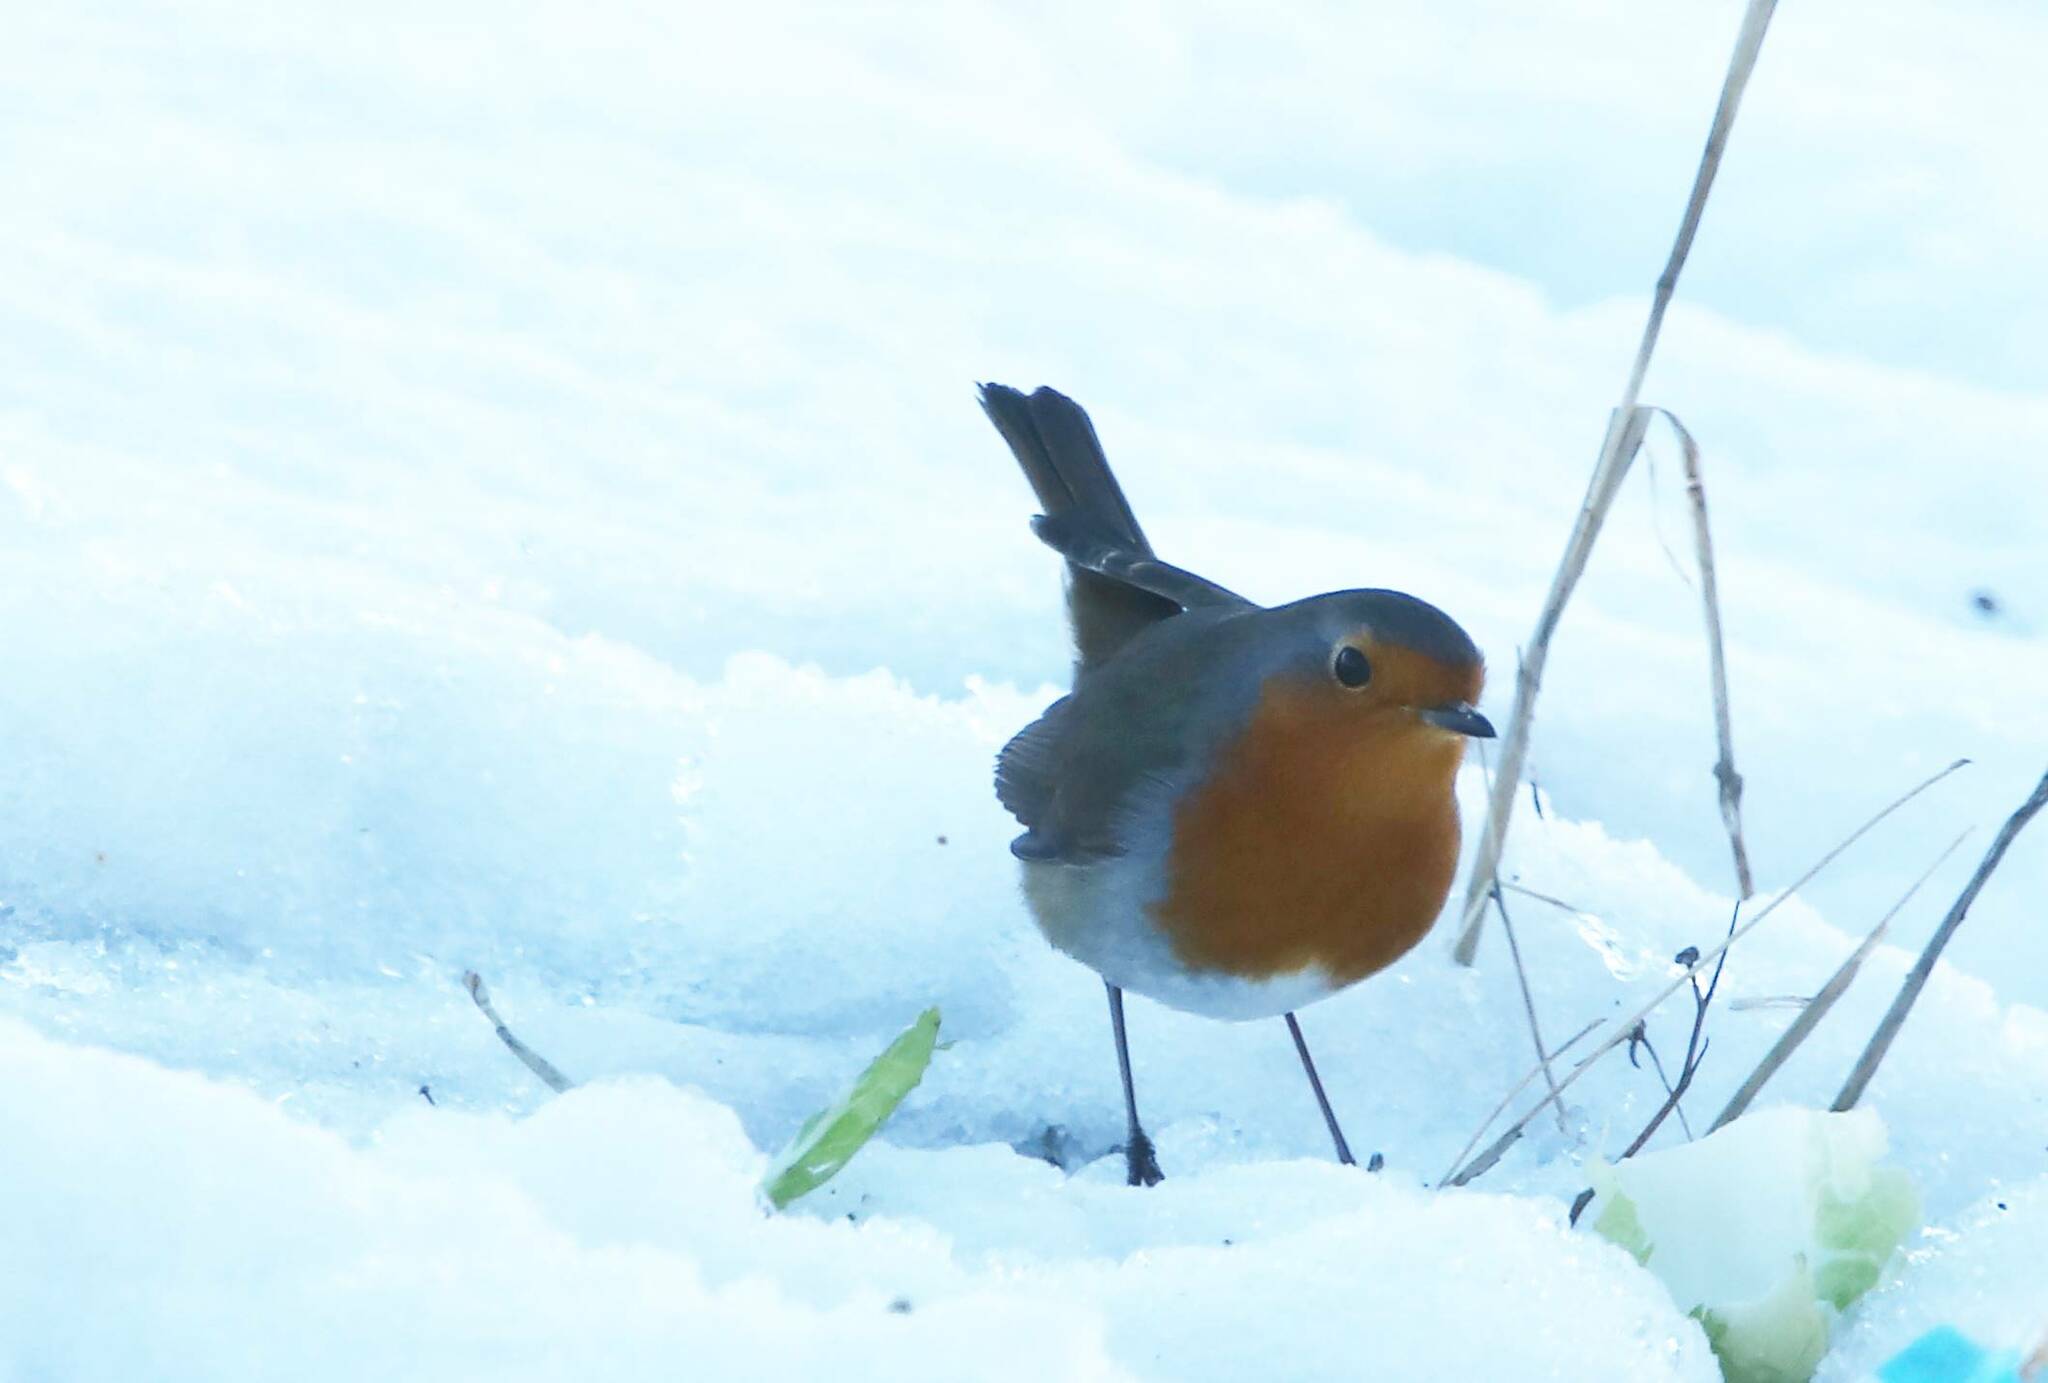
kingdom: Animalia
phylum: Chordata
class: Aves
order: Passeriformes
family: Muscicapidae
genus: Erithacus
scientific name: Erithacus rubecula
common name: European robin
